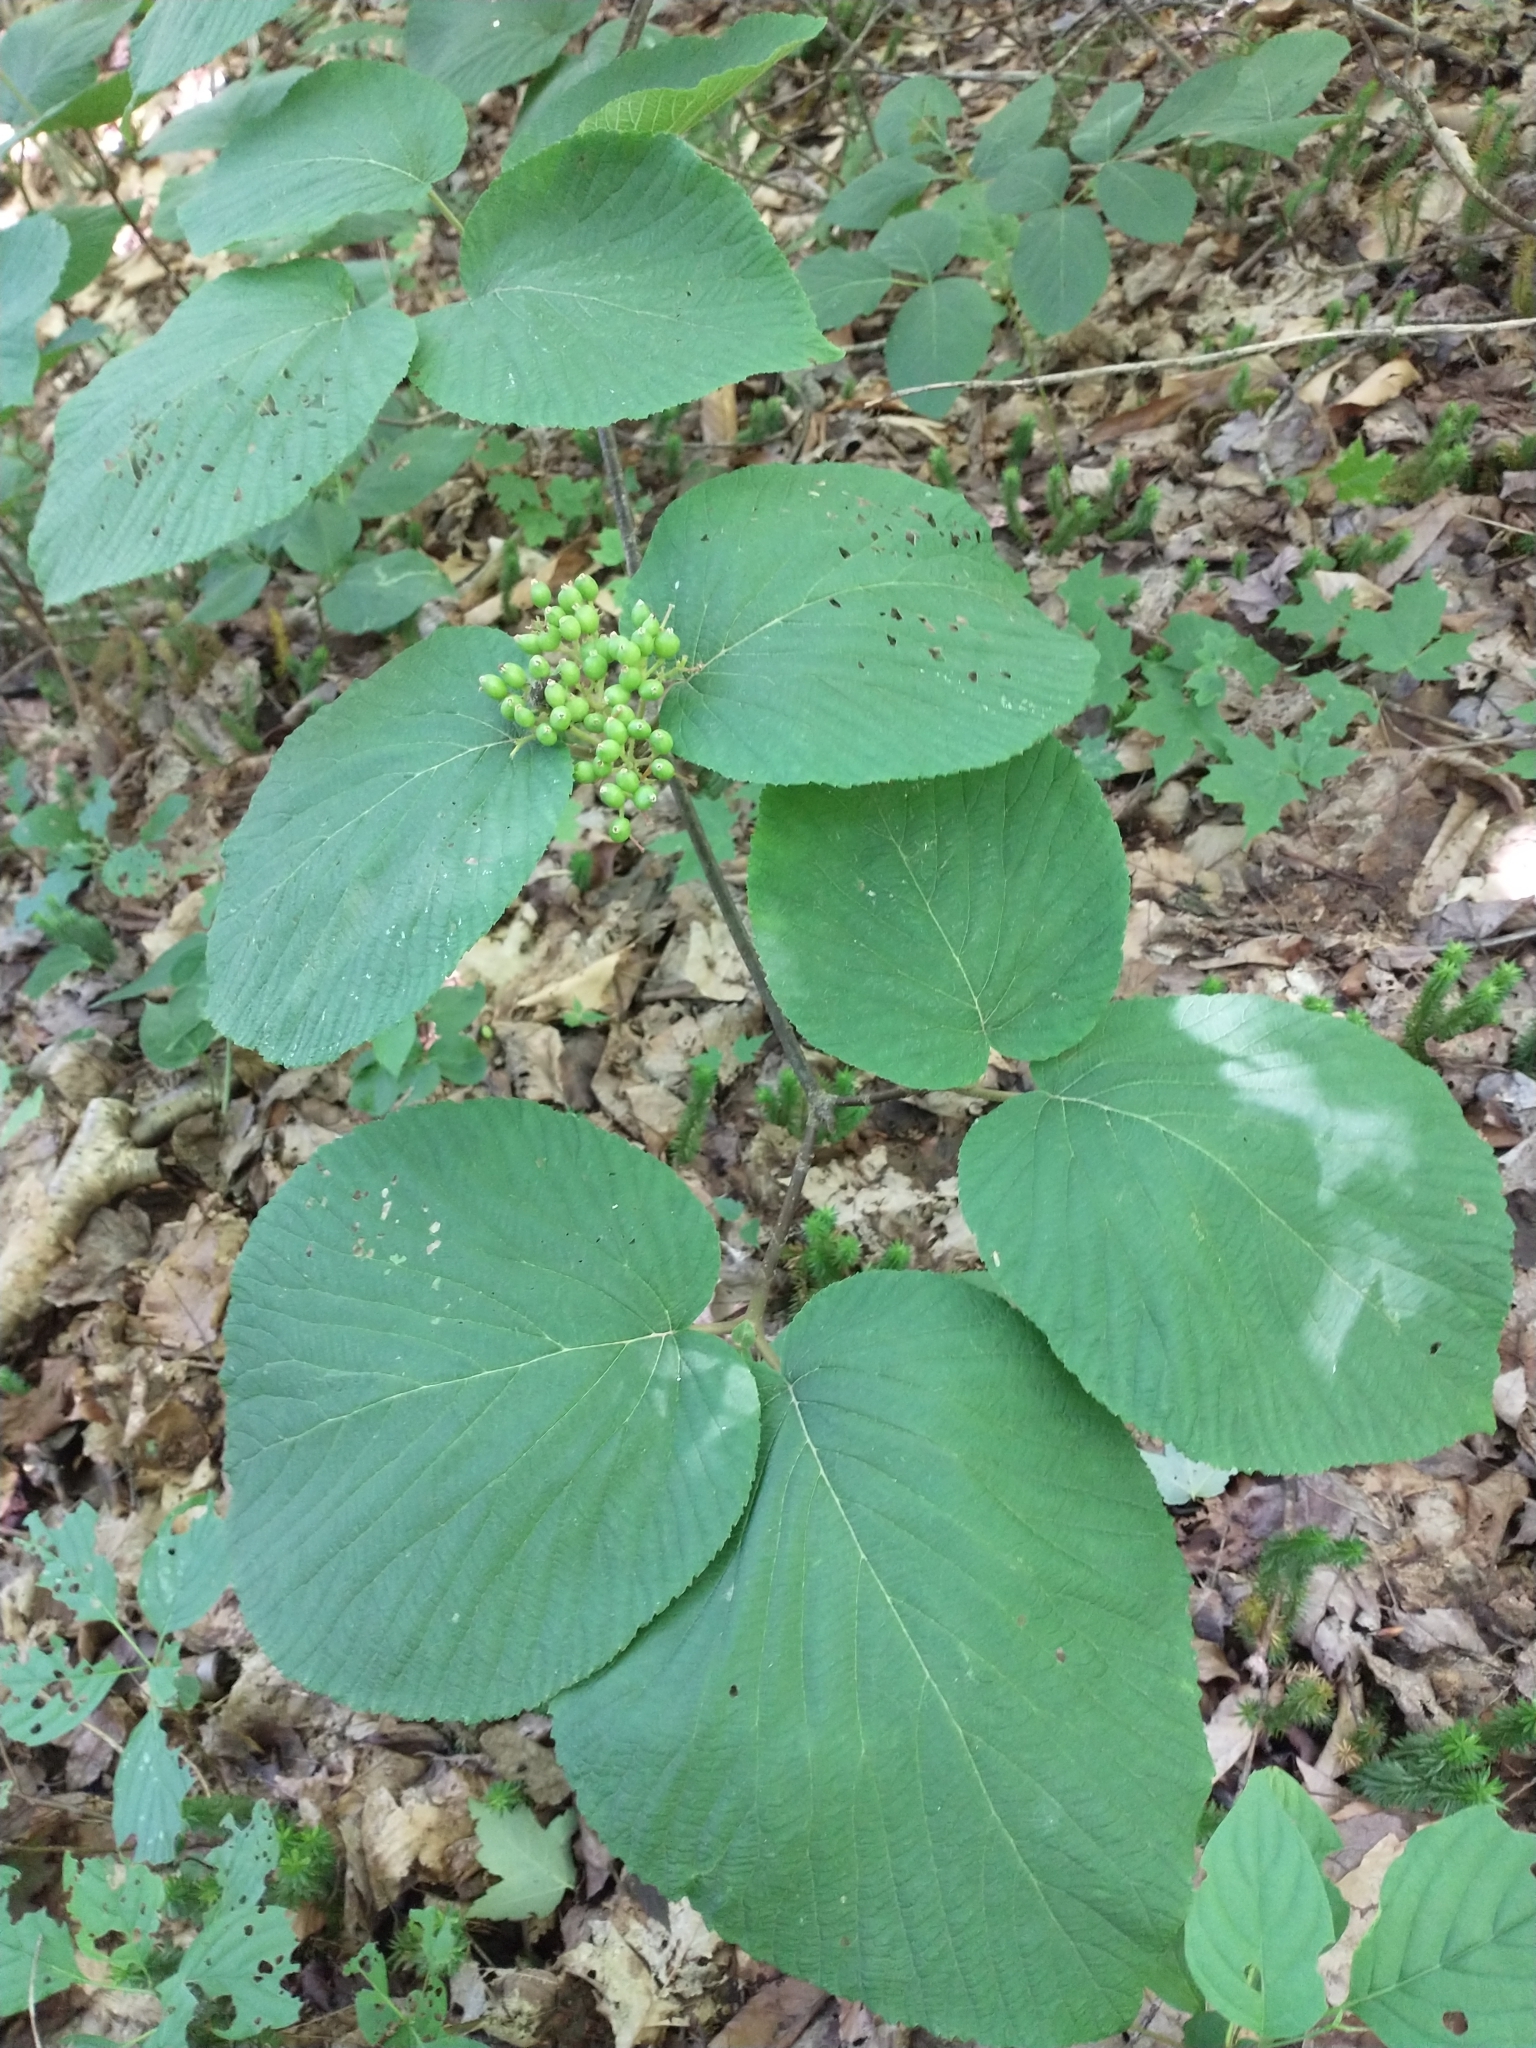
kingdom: Plantae
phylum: Tracheophyta
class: Magnoliopsida
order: Dipsacales
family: Viburnaceae
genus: Viburnum
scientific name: Viburnum lantanoides
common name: Hobblebush
